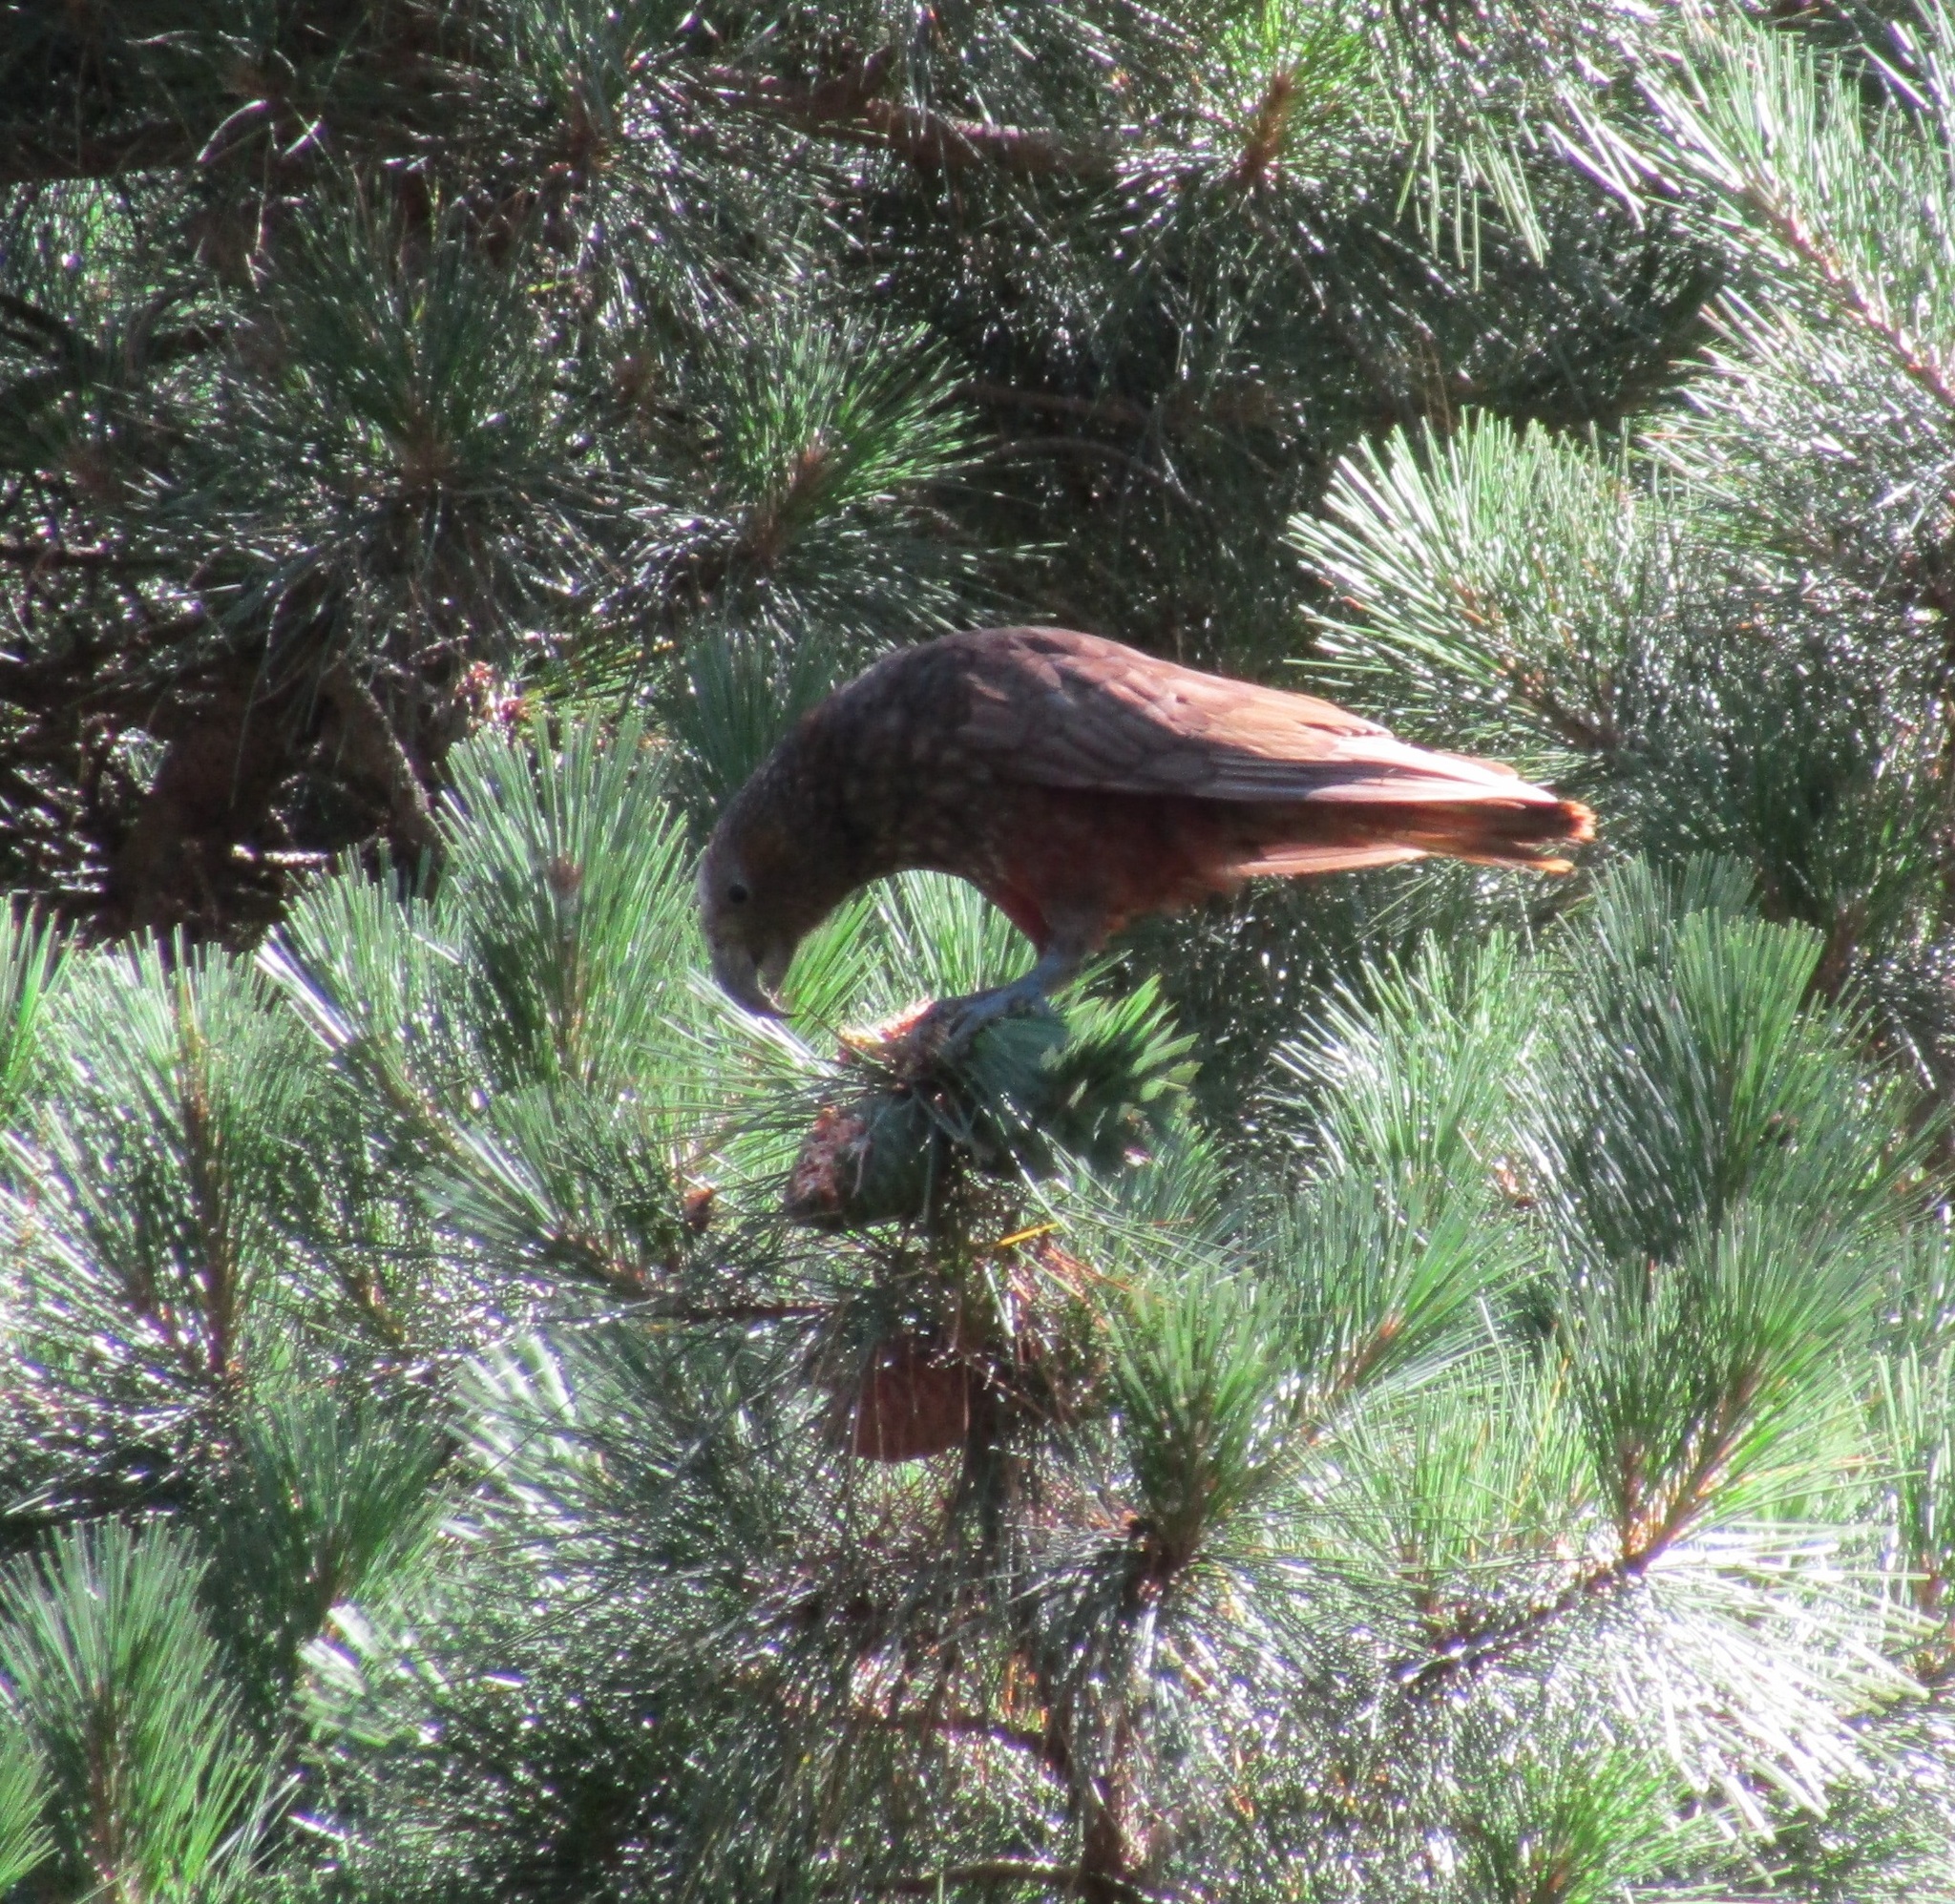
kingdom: Animalia
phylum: Chordata
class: Aves
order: Psittaciformes
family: Psittacidae
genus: Nestor
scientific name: Nestor meridionalis
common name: New zealand kaka
